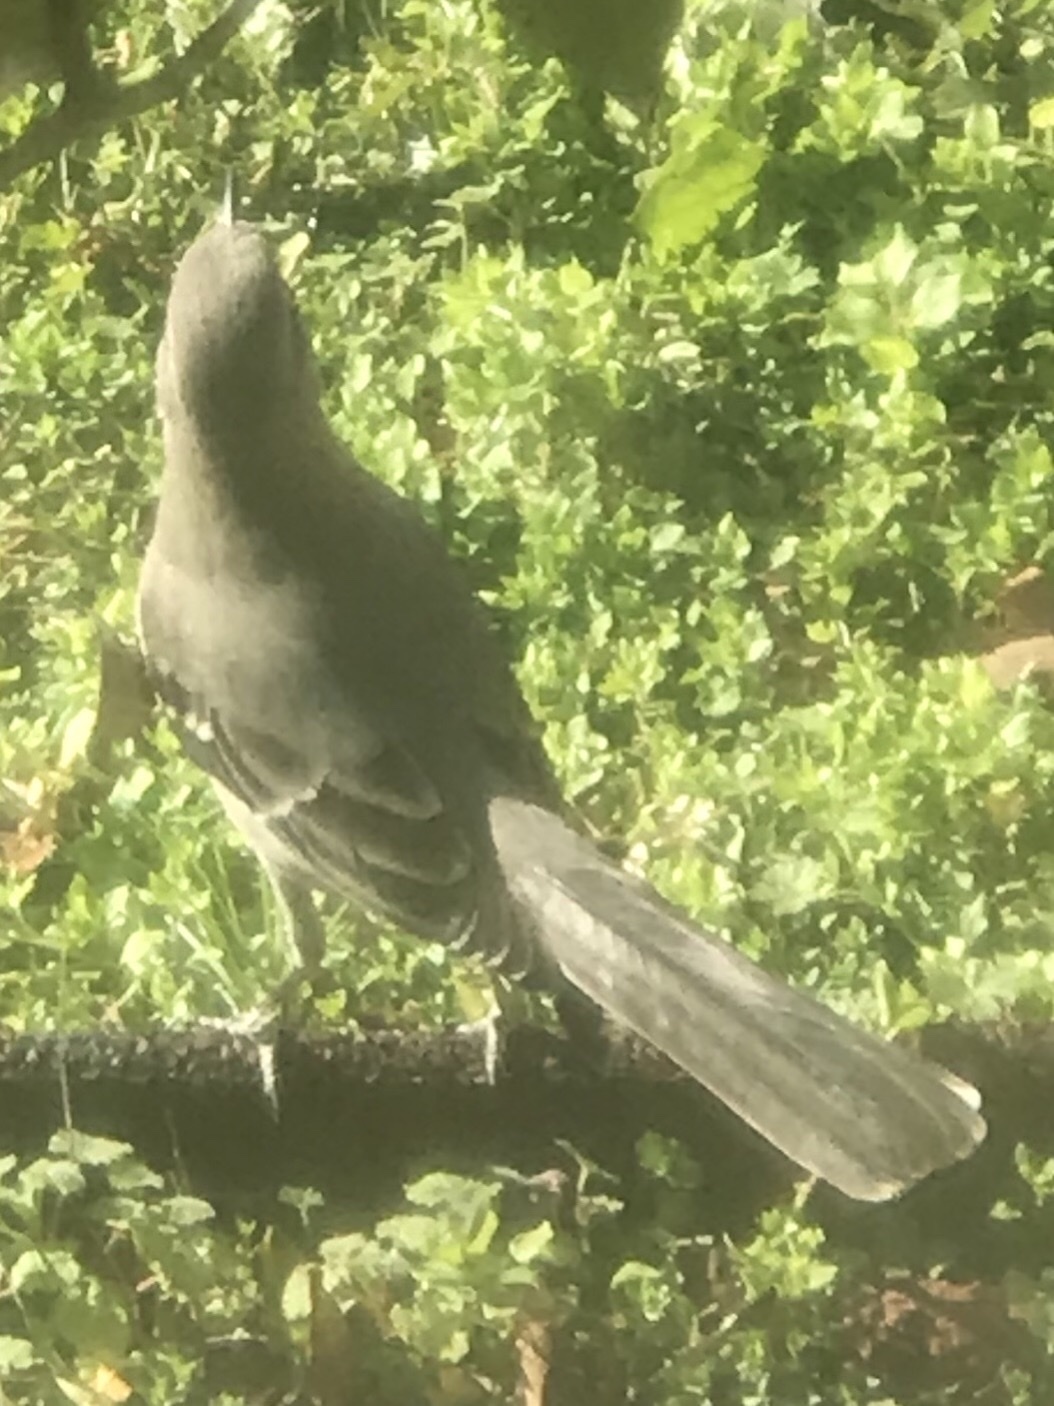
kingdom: Animalia
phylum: Chordata
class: Aves
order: Passeriformes
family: Mimidae
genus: Mimus
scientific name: Mimus polyglottos
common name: Northern mockingbird
